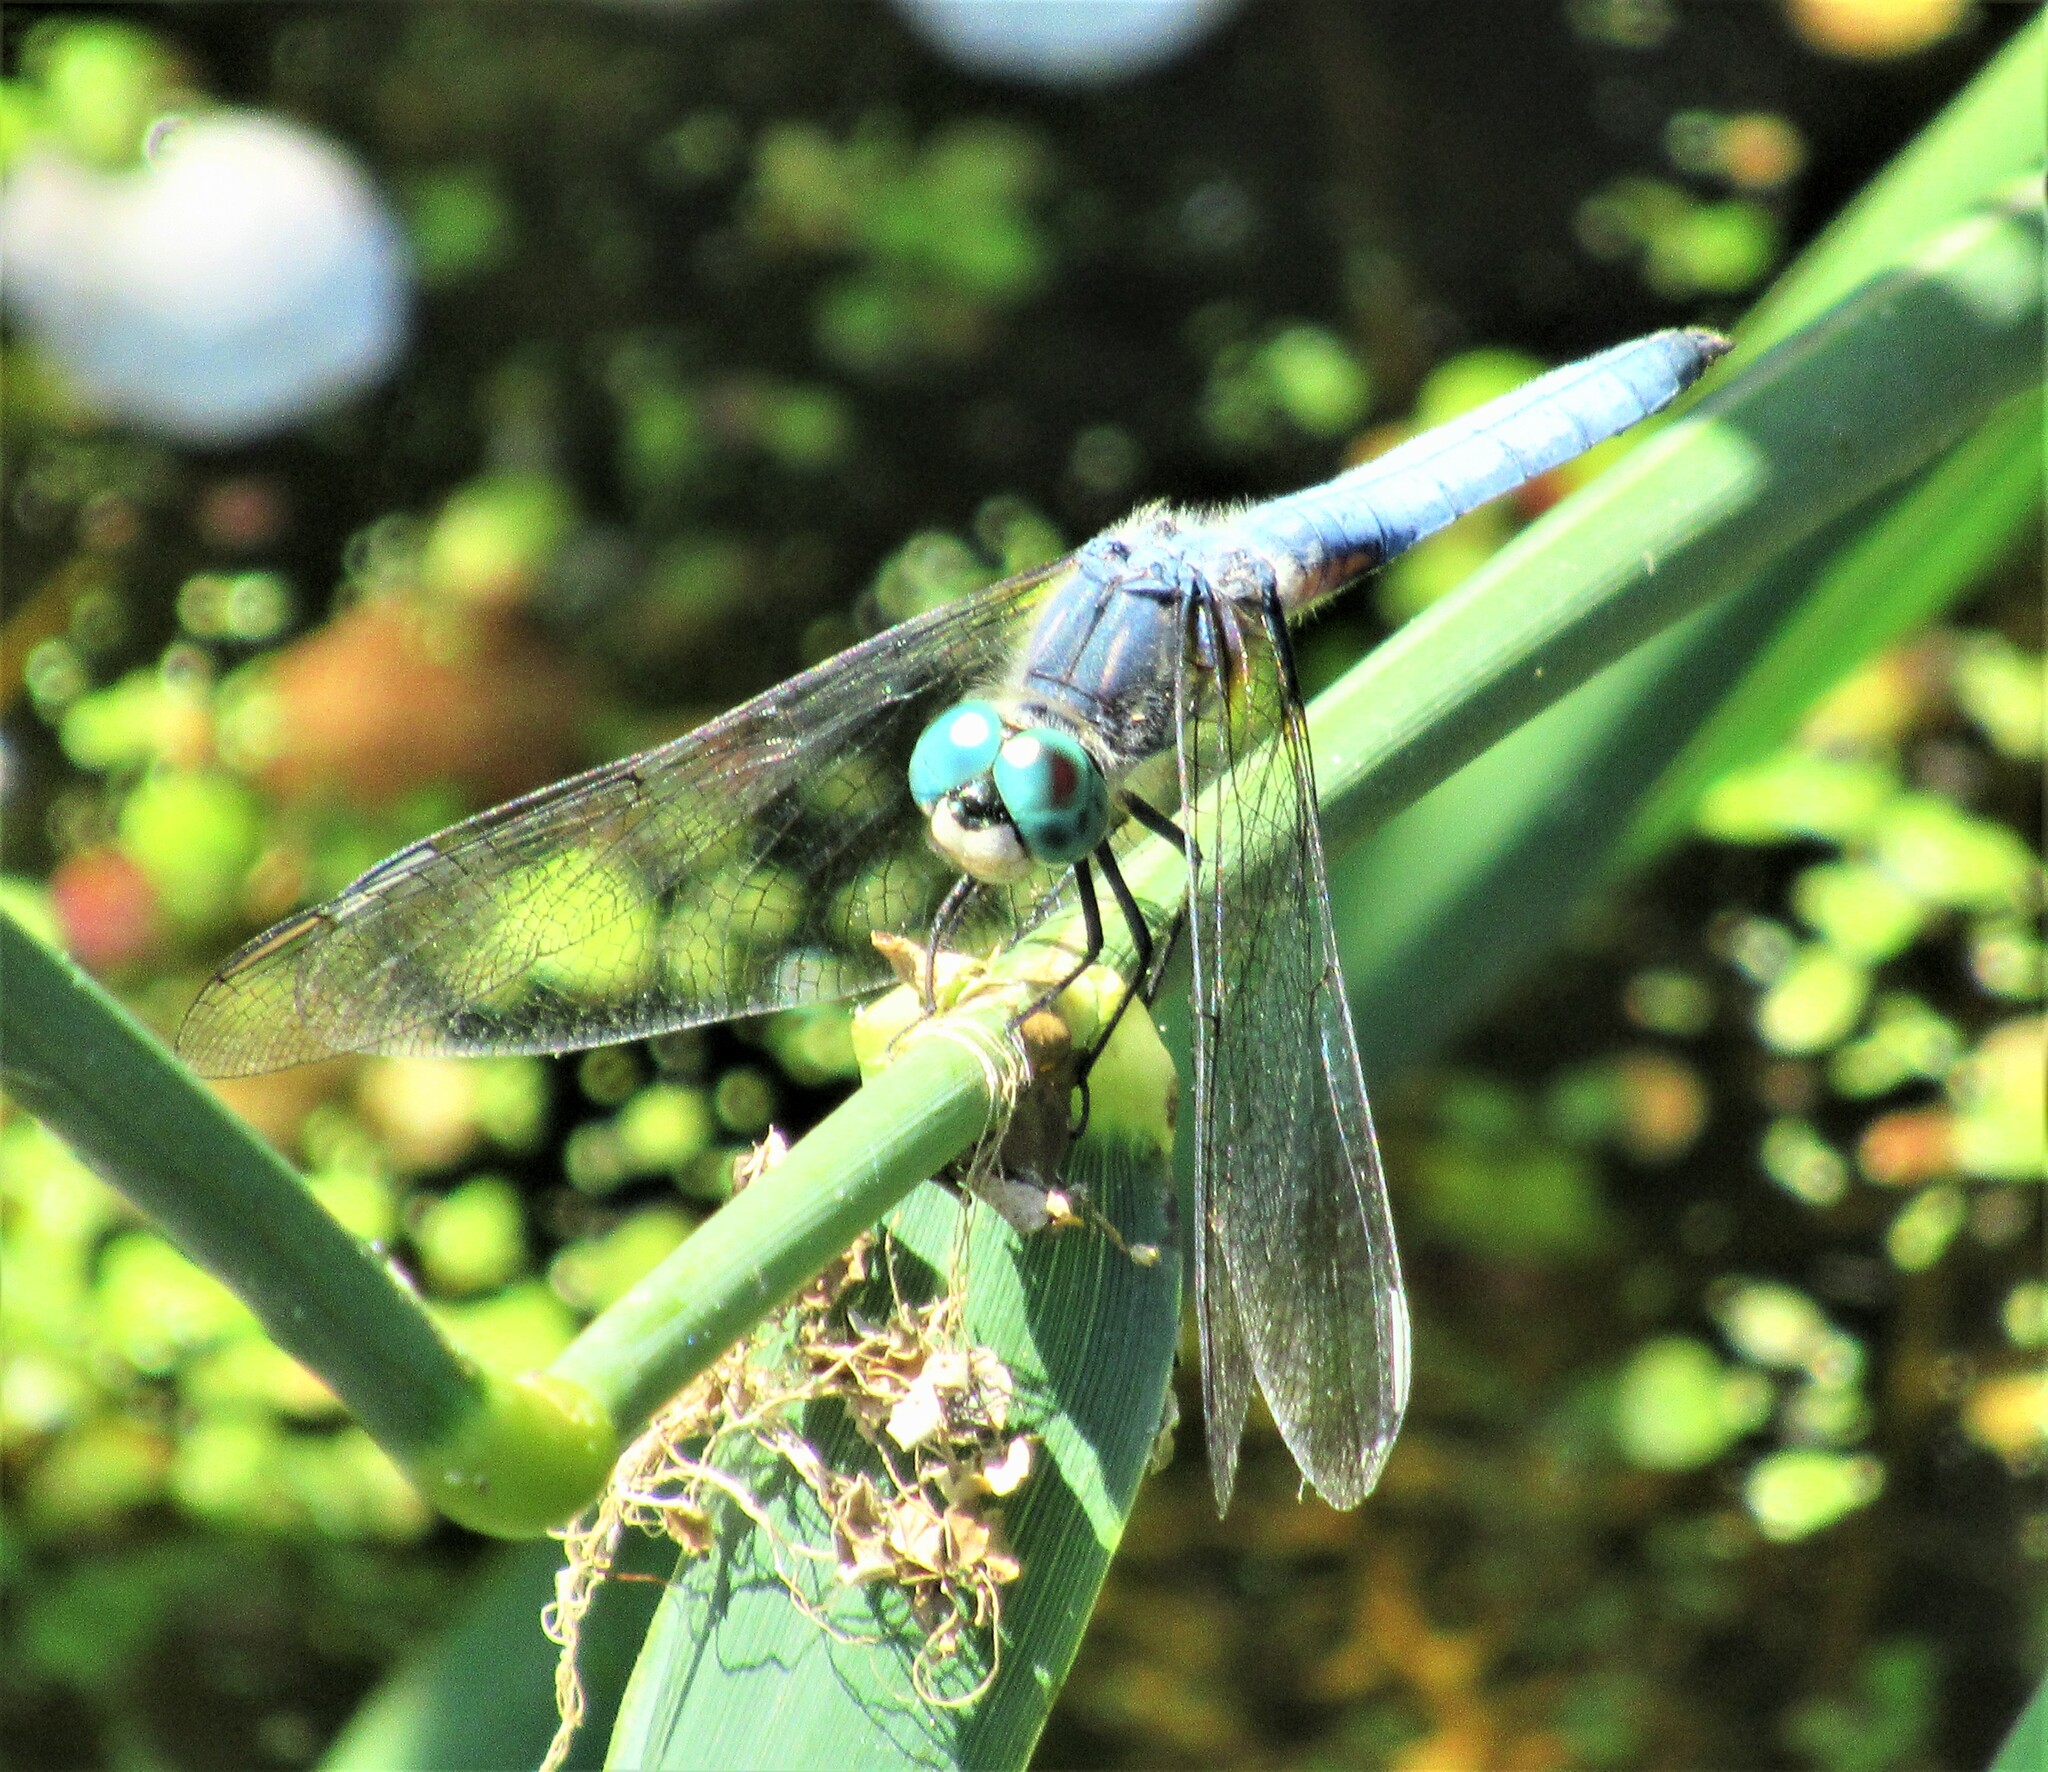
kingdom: Animalia
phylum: Arthropoda
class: Insecta
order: Odonata
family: Libellulidae
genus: Pachydiplax
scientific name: Pachydiplax longipennis
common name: Blue dasher
